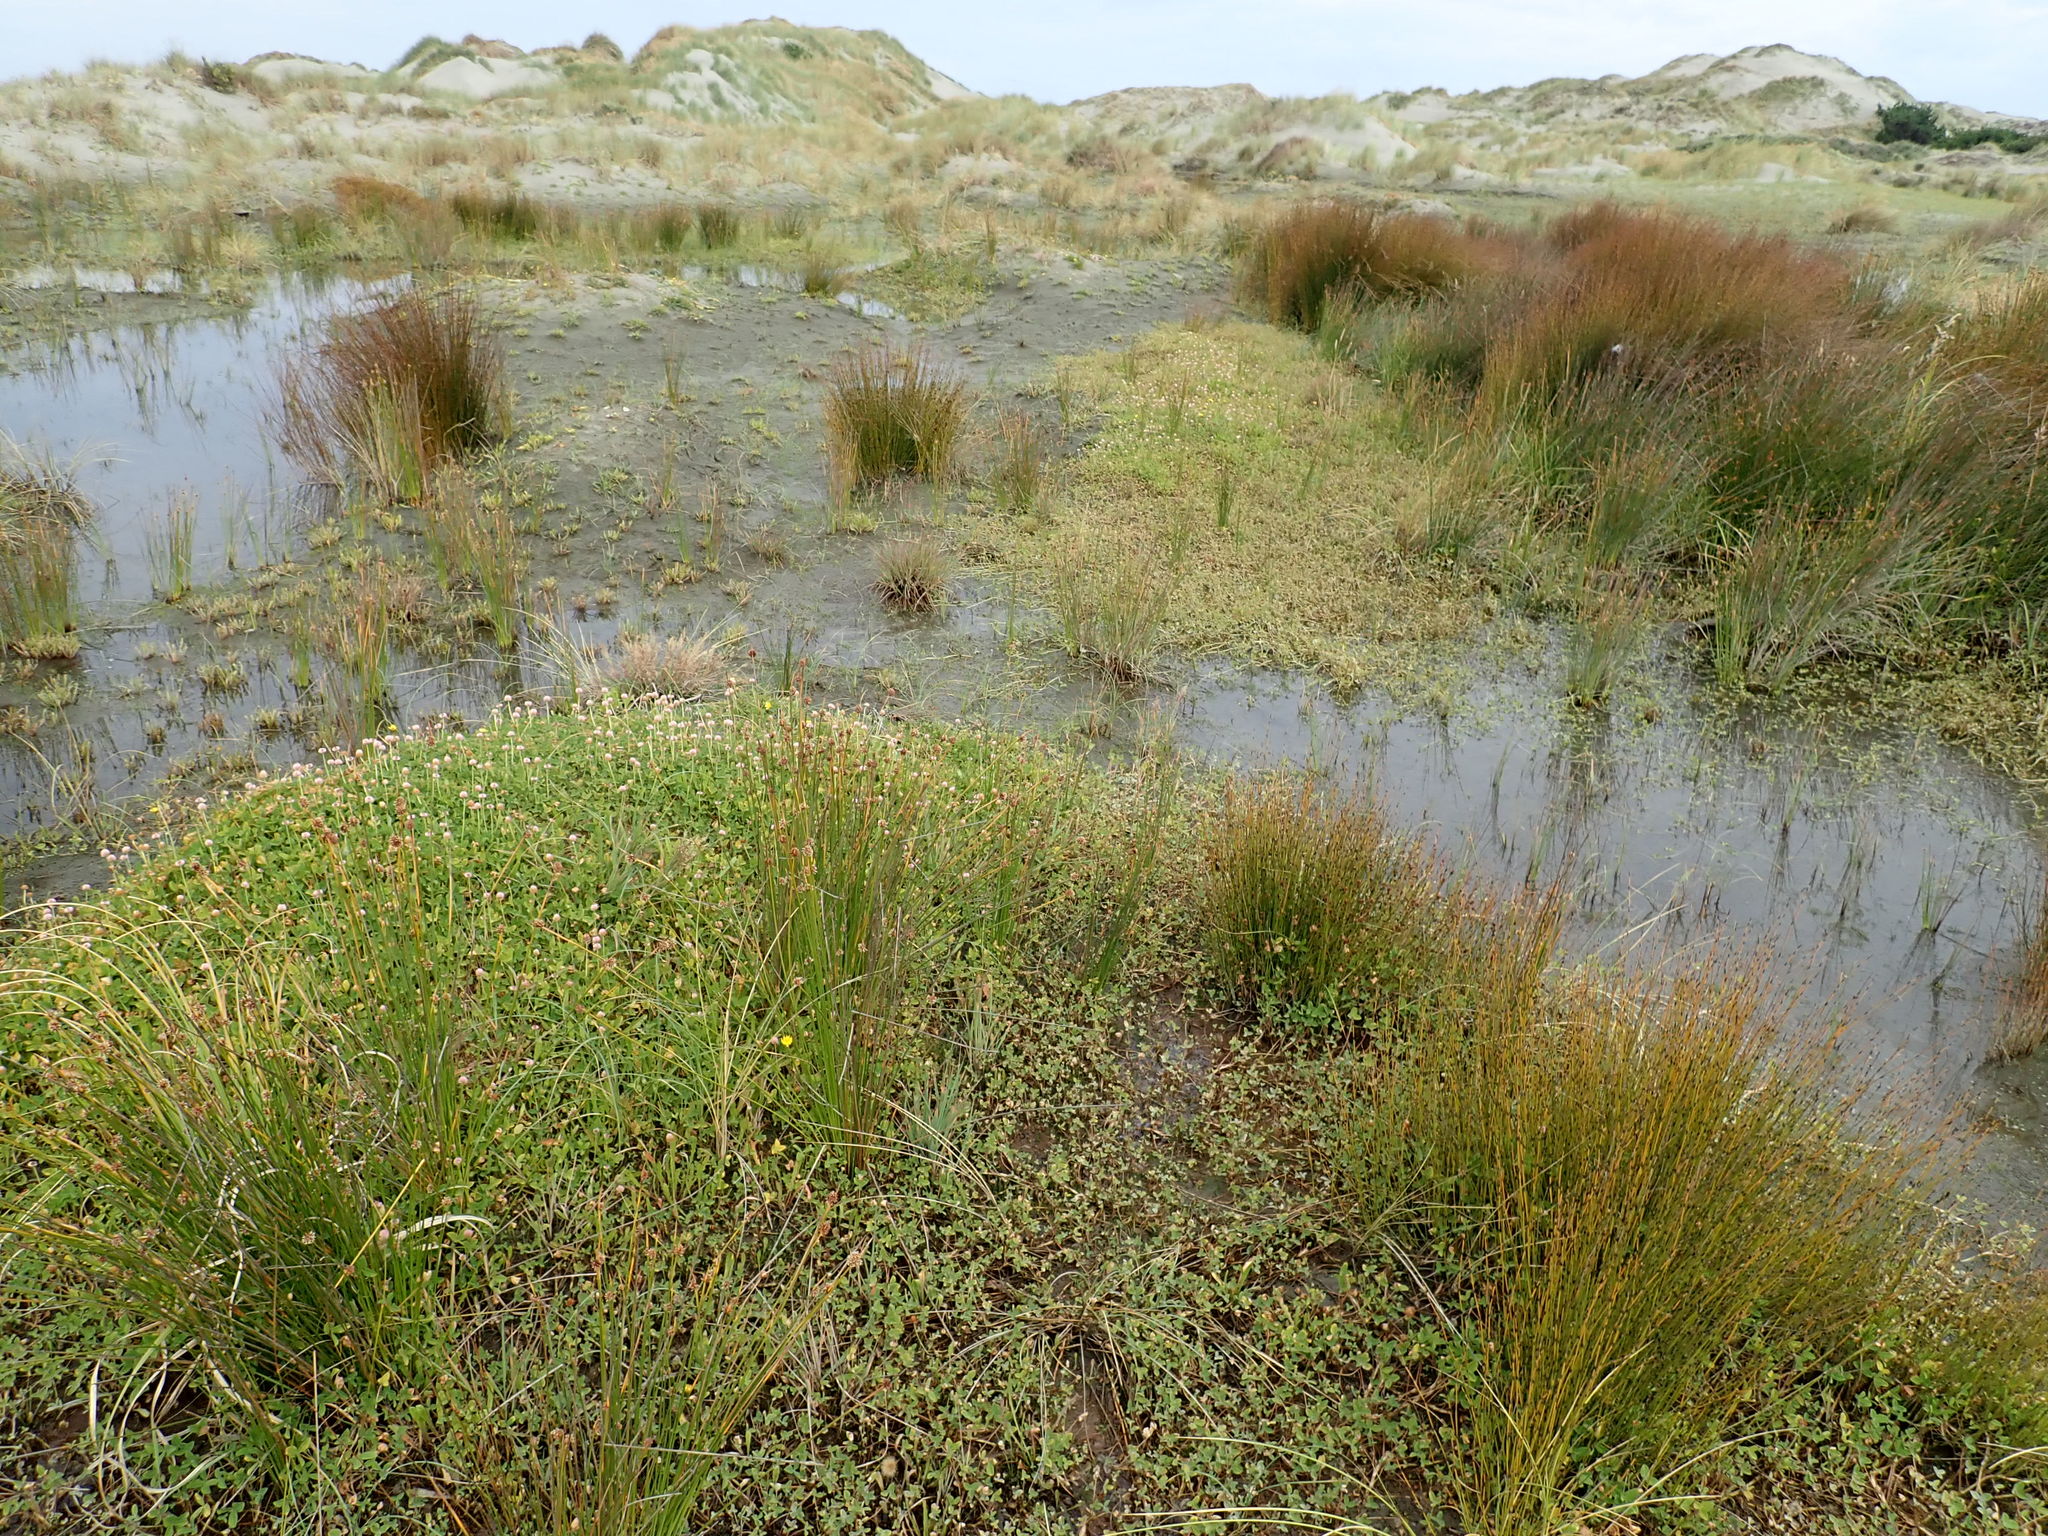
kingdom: Plantae
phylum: Tracheophyta
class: Magnoliopsida
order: Fabales
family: Fabaceae
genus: Trifolium
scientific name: Trifolium fragiferum
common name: Strawberry clover
